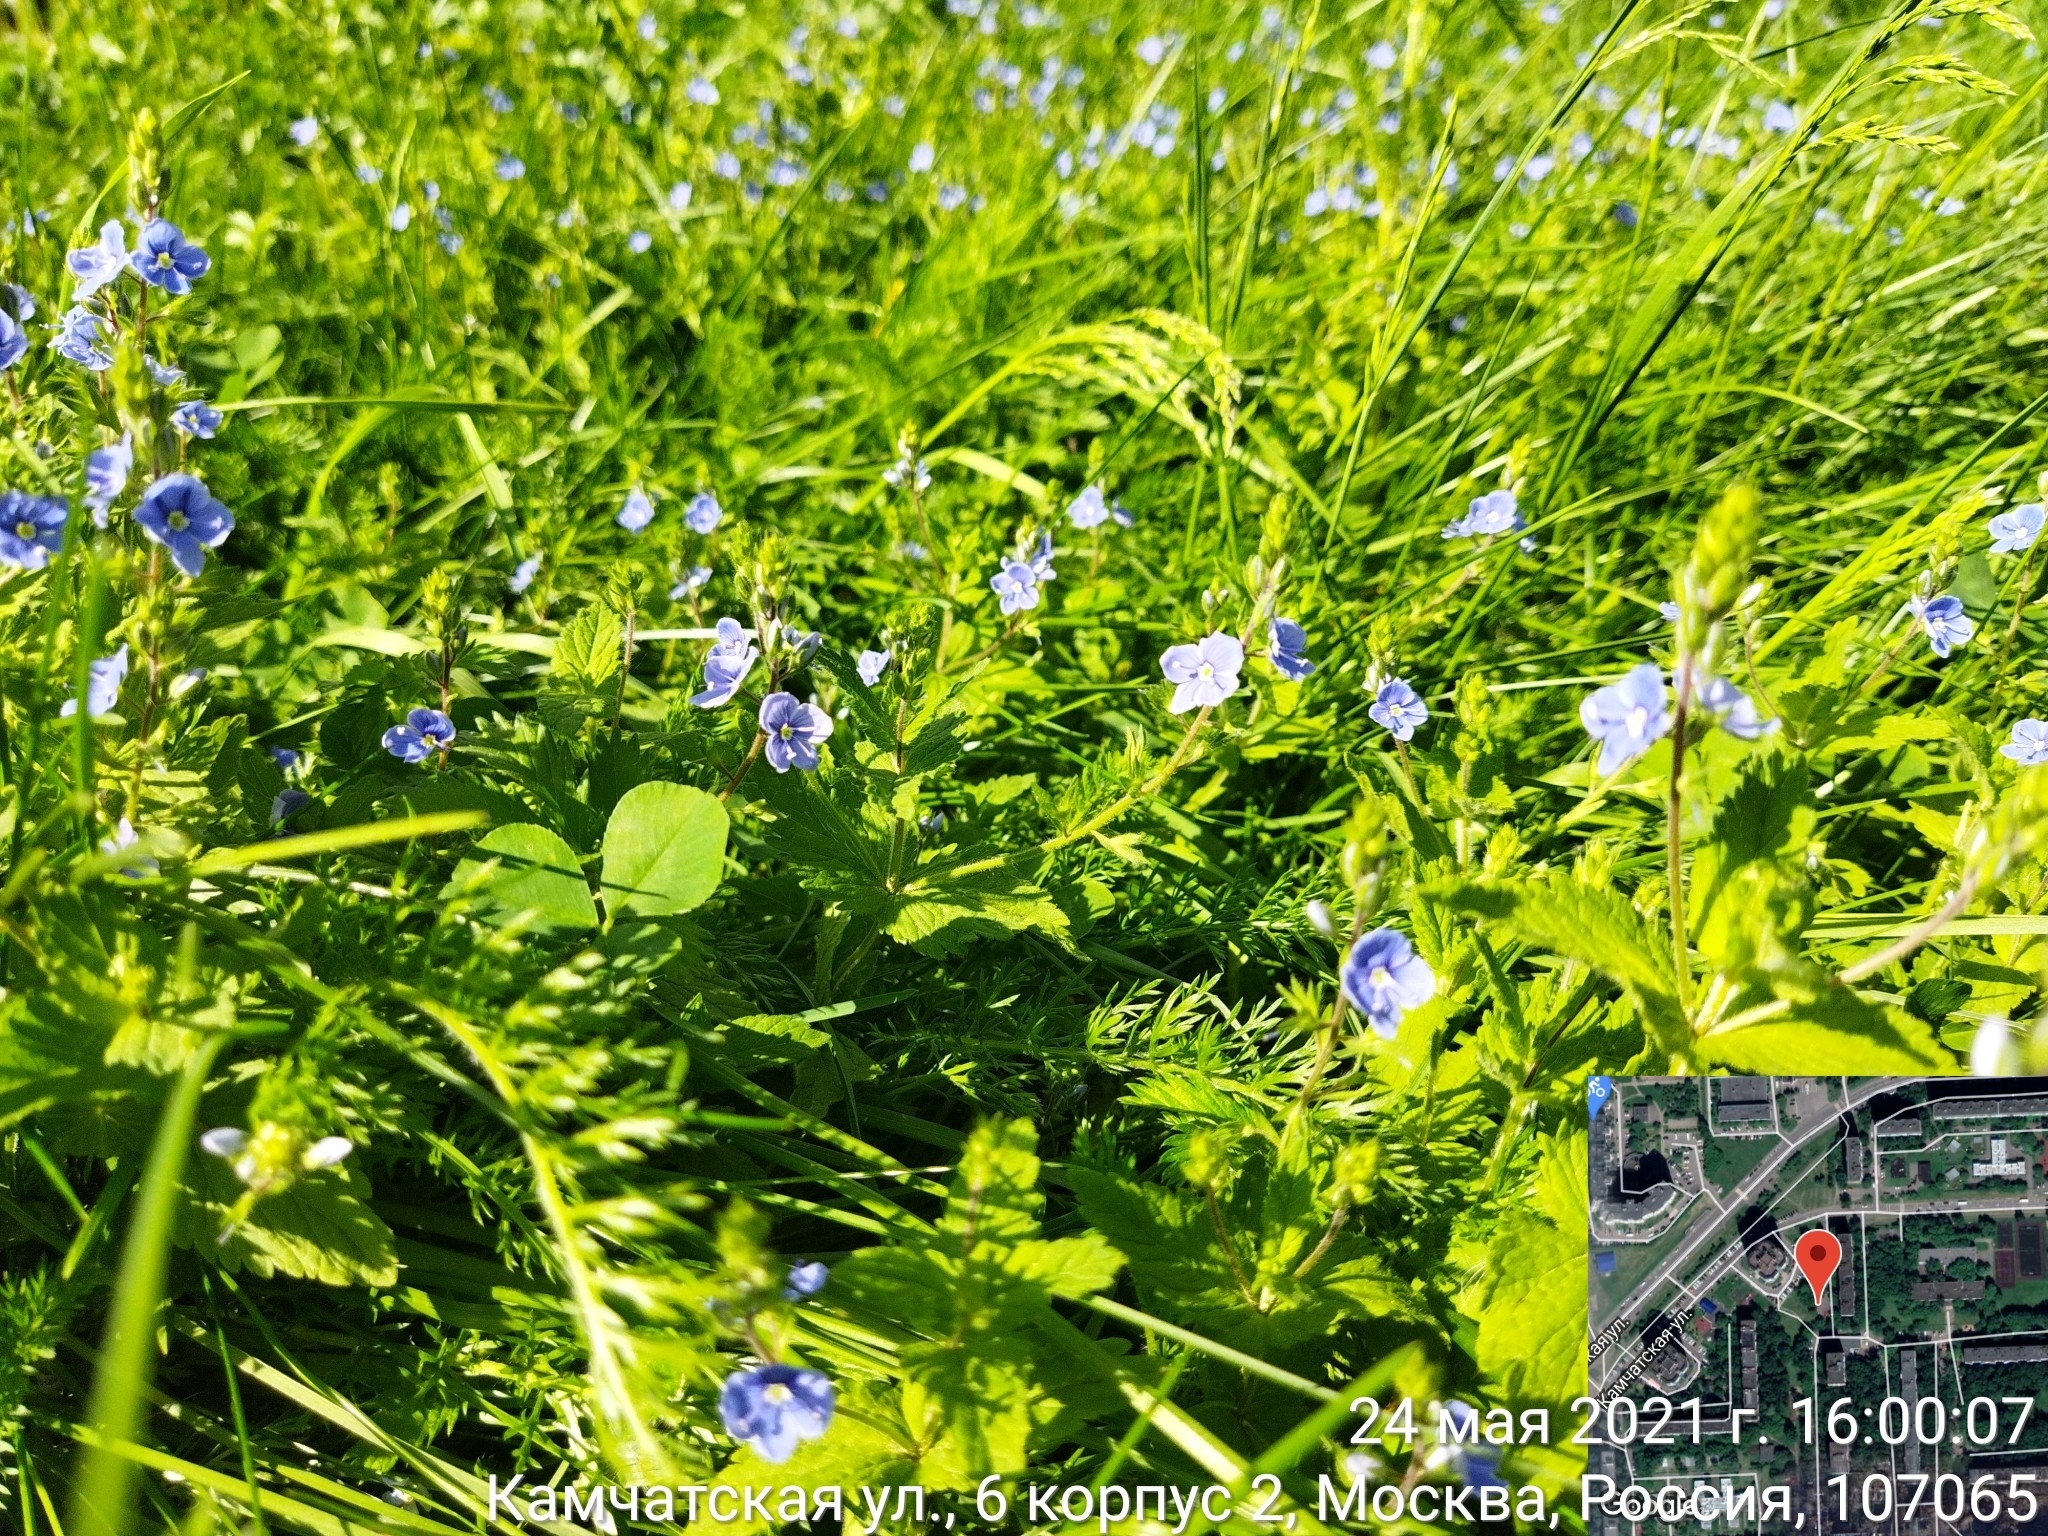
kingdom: Plantae
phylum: Tracheophyta
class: Magnoliopsida
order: Lamiales
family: Plantaginaceae
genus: Veronica
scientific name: Veronica chamaedrys
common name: Germander speedwell
